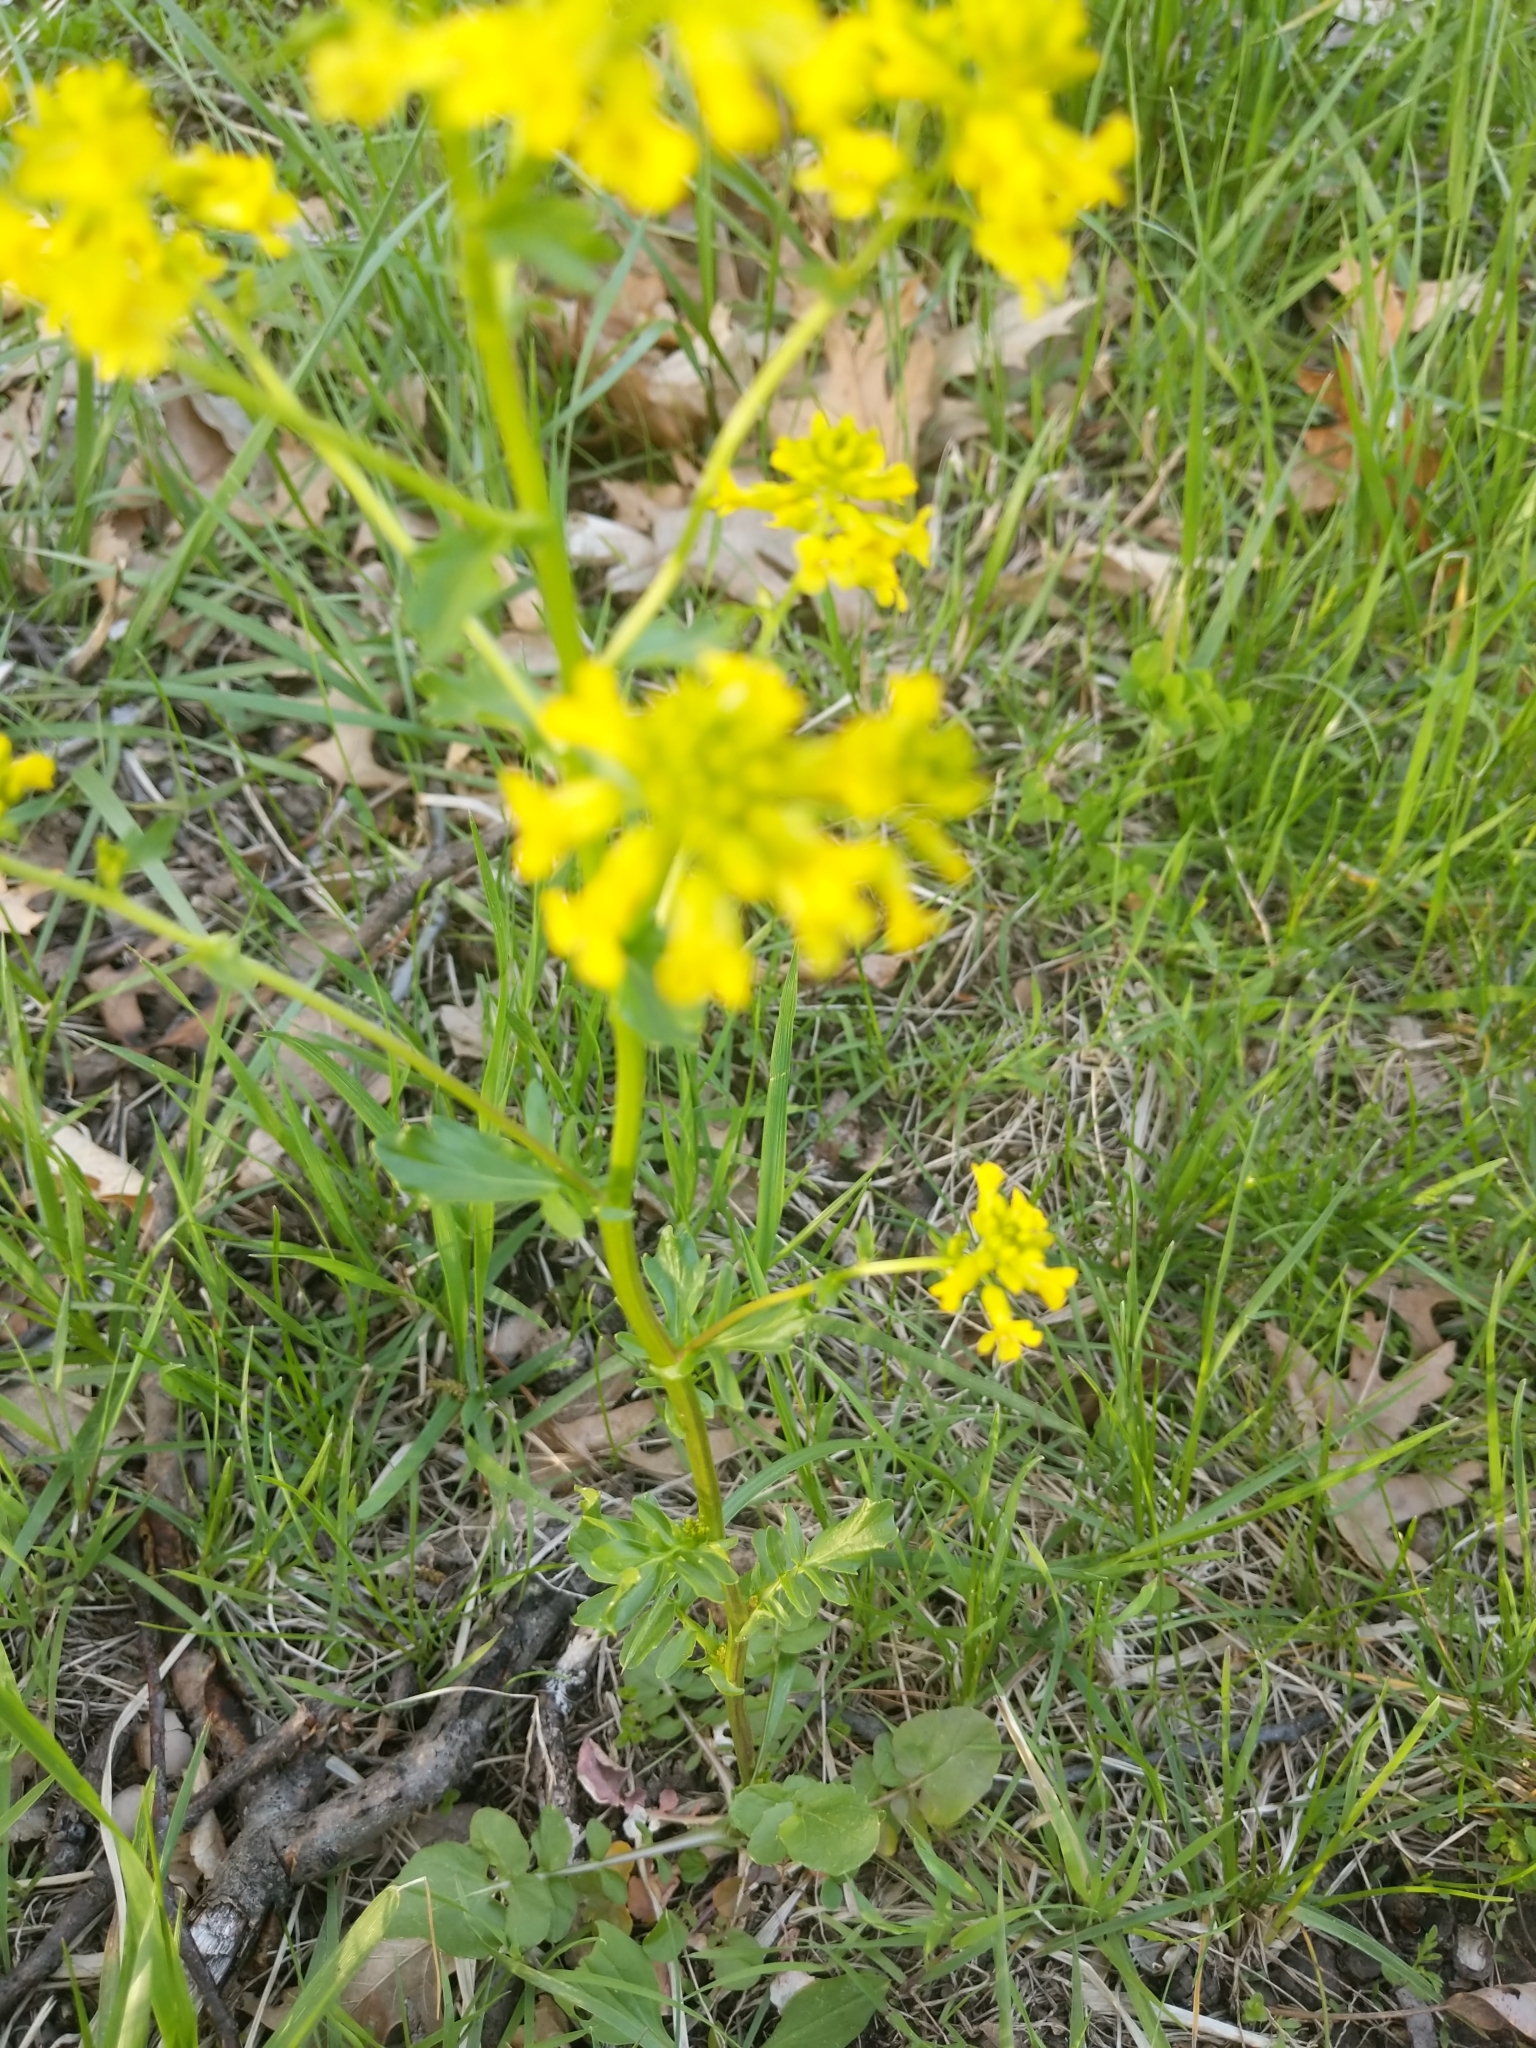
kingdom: Plantae
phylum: Tracheophyta
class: Magnoliopsida
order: Brassicales
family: Brassicaceae
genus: Barbarea
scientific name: Barbarea vulgaris
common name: Cressy-greens
